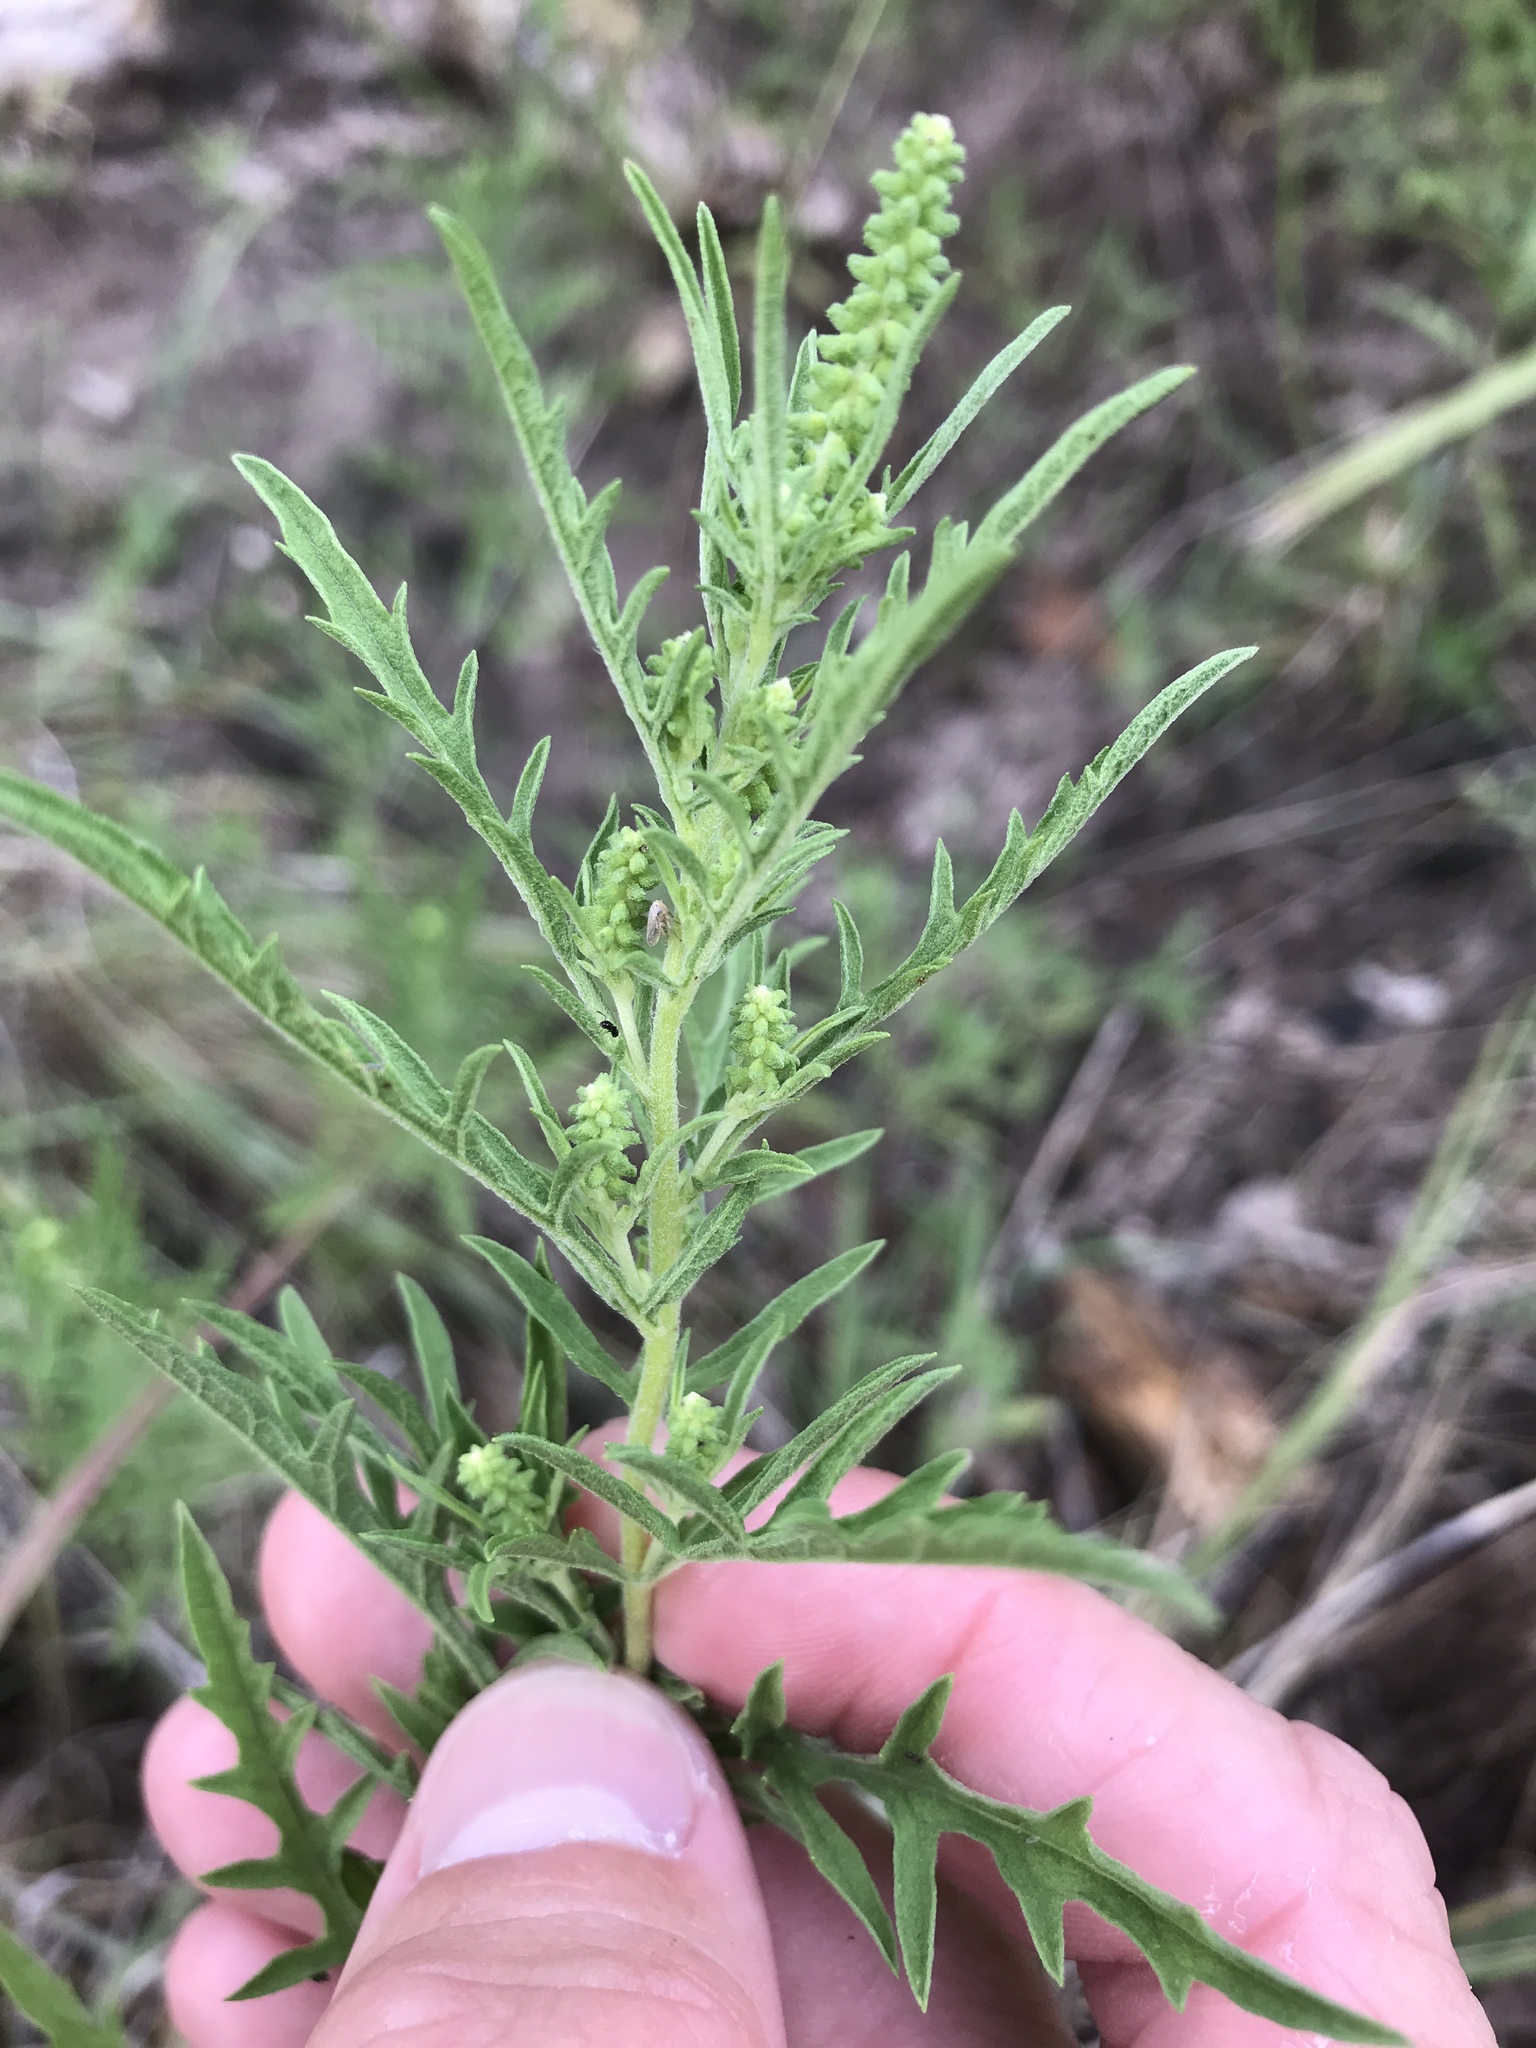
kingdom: Plantae
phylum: Tracheophyta
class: Magnoliopsida
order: Asterales
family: Asteraceae
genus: Ambrosia
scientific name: Ambrosia psilostachya
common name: Perennial ragweed
